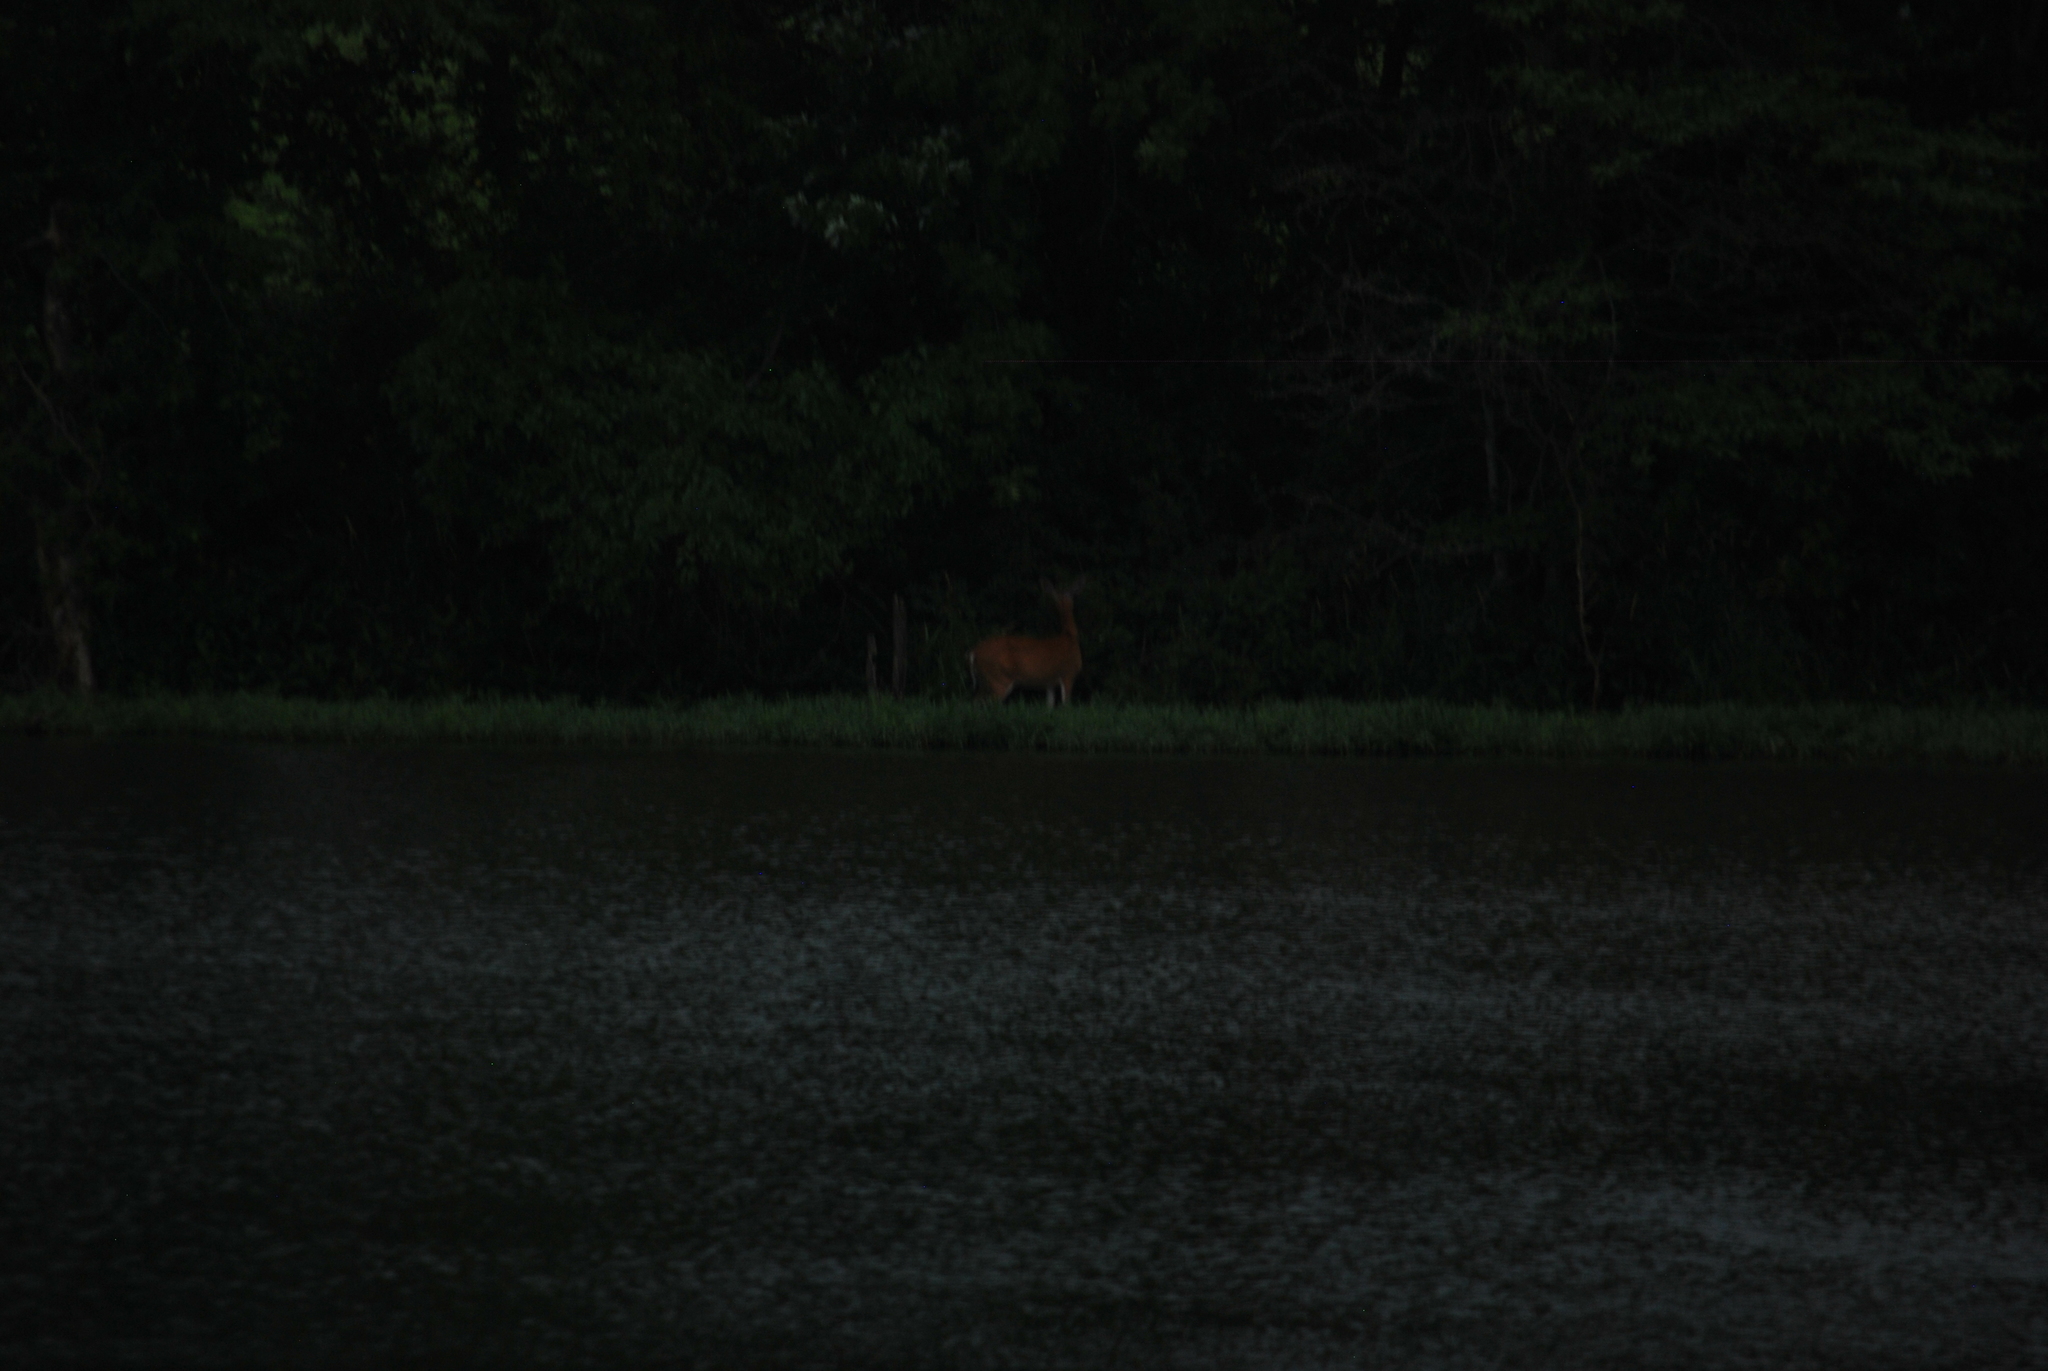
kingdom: Animalia
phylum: Chordata
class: Mammalia
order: Artiodactyla
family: Cervidae
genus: Odocoileus
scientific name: Odocoileus virginianus
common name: White-tailed deer
